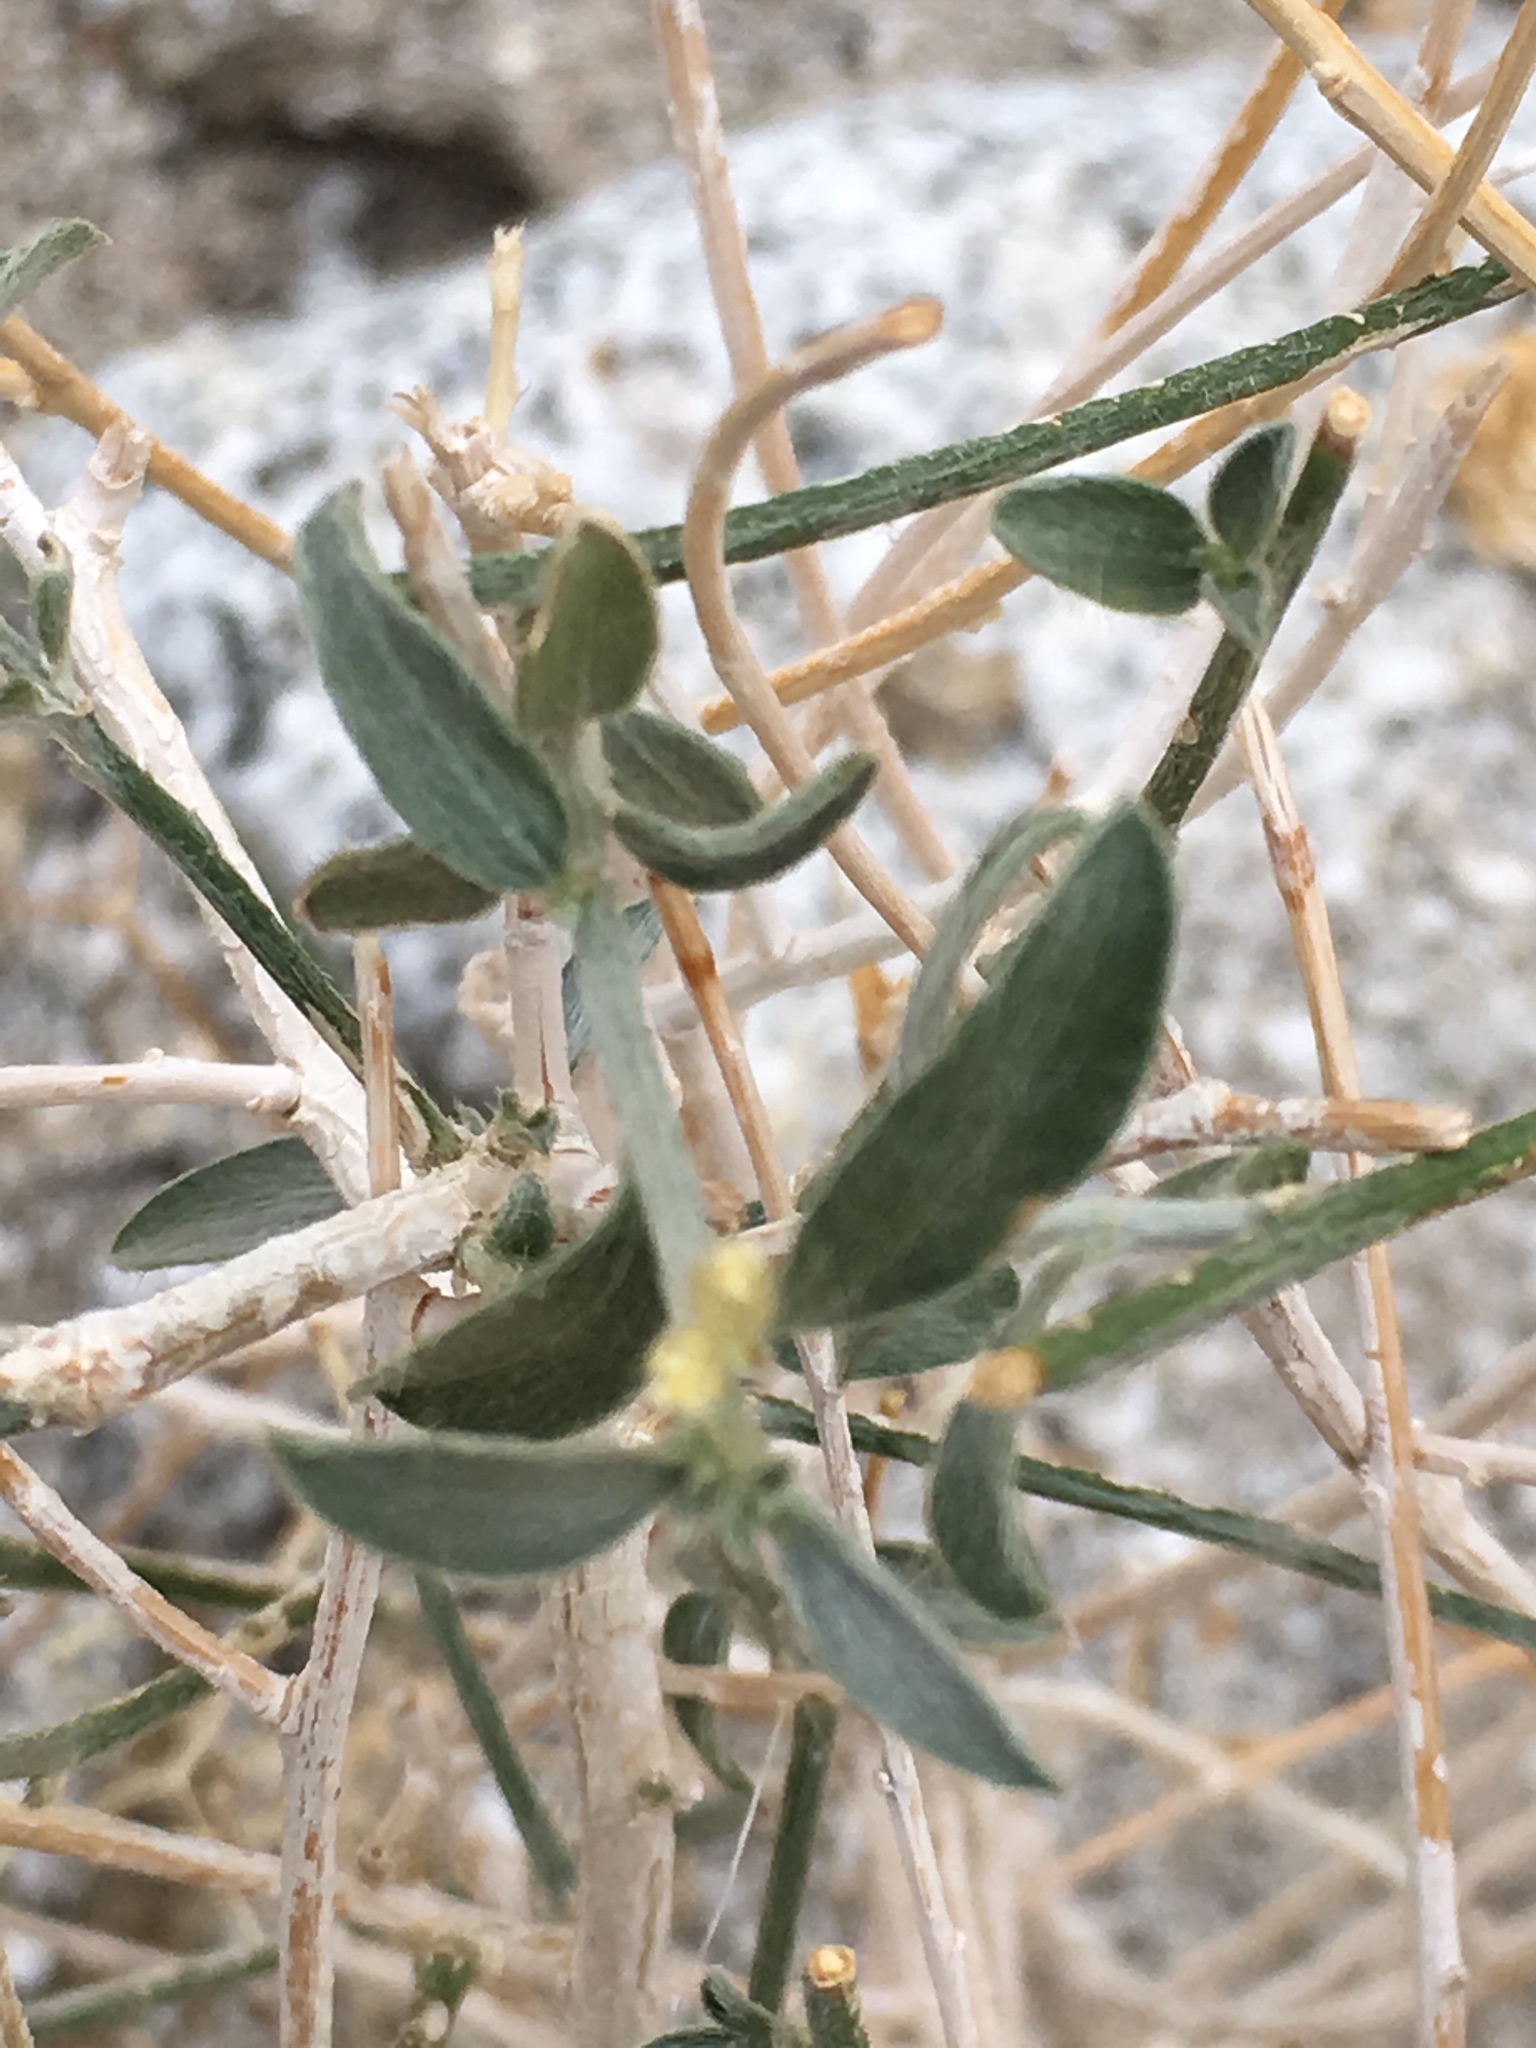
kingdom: Plantae
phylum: Tracheophyta
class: Magnoliopsida
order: Malpighiales
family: Euphorbiaceae
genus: Ditaxis
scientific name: Ditaxis lanceolata
